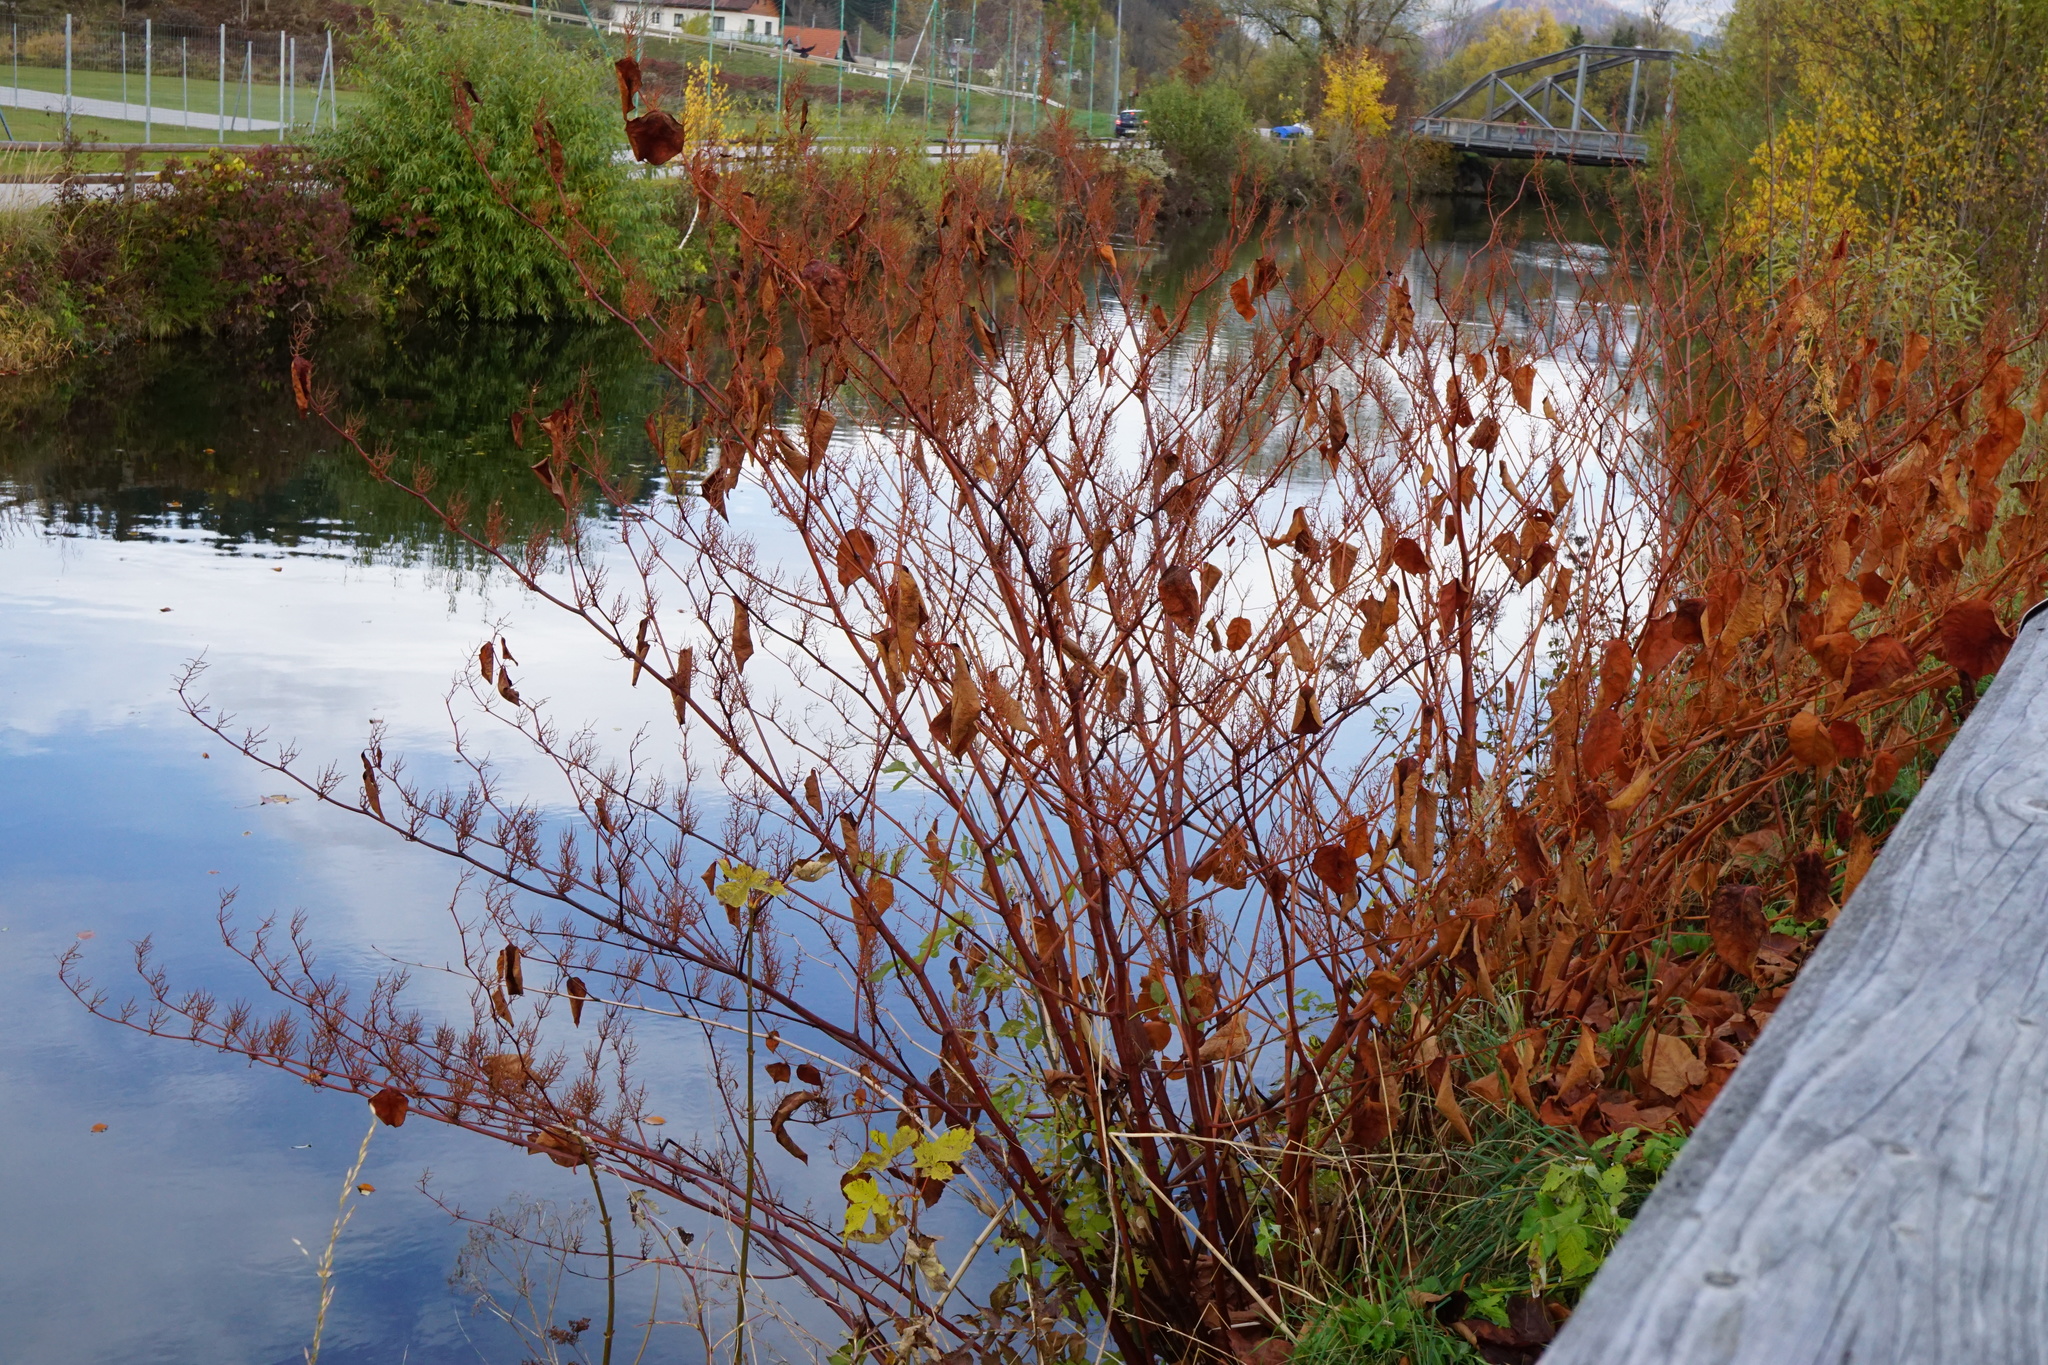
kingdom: Plantae
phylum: Tracheophyta
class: Magnoliopsida
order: Caryophyllales
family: Polygonaceae
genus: Reynoutria
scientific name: Reynoutria bohemica
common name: Bohemian knotweed
